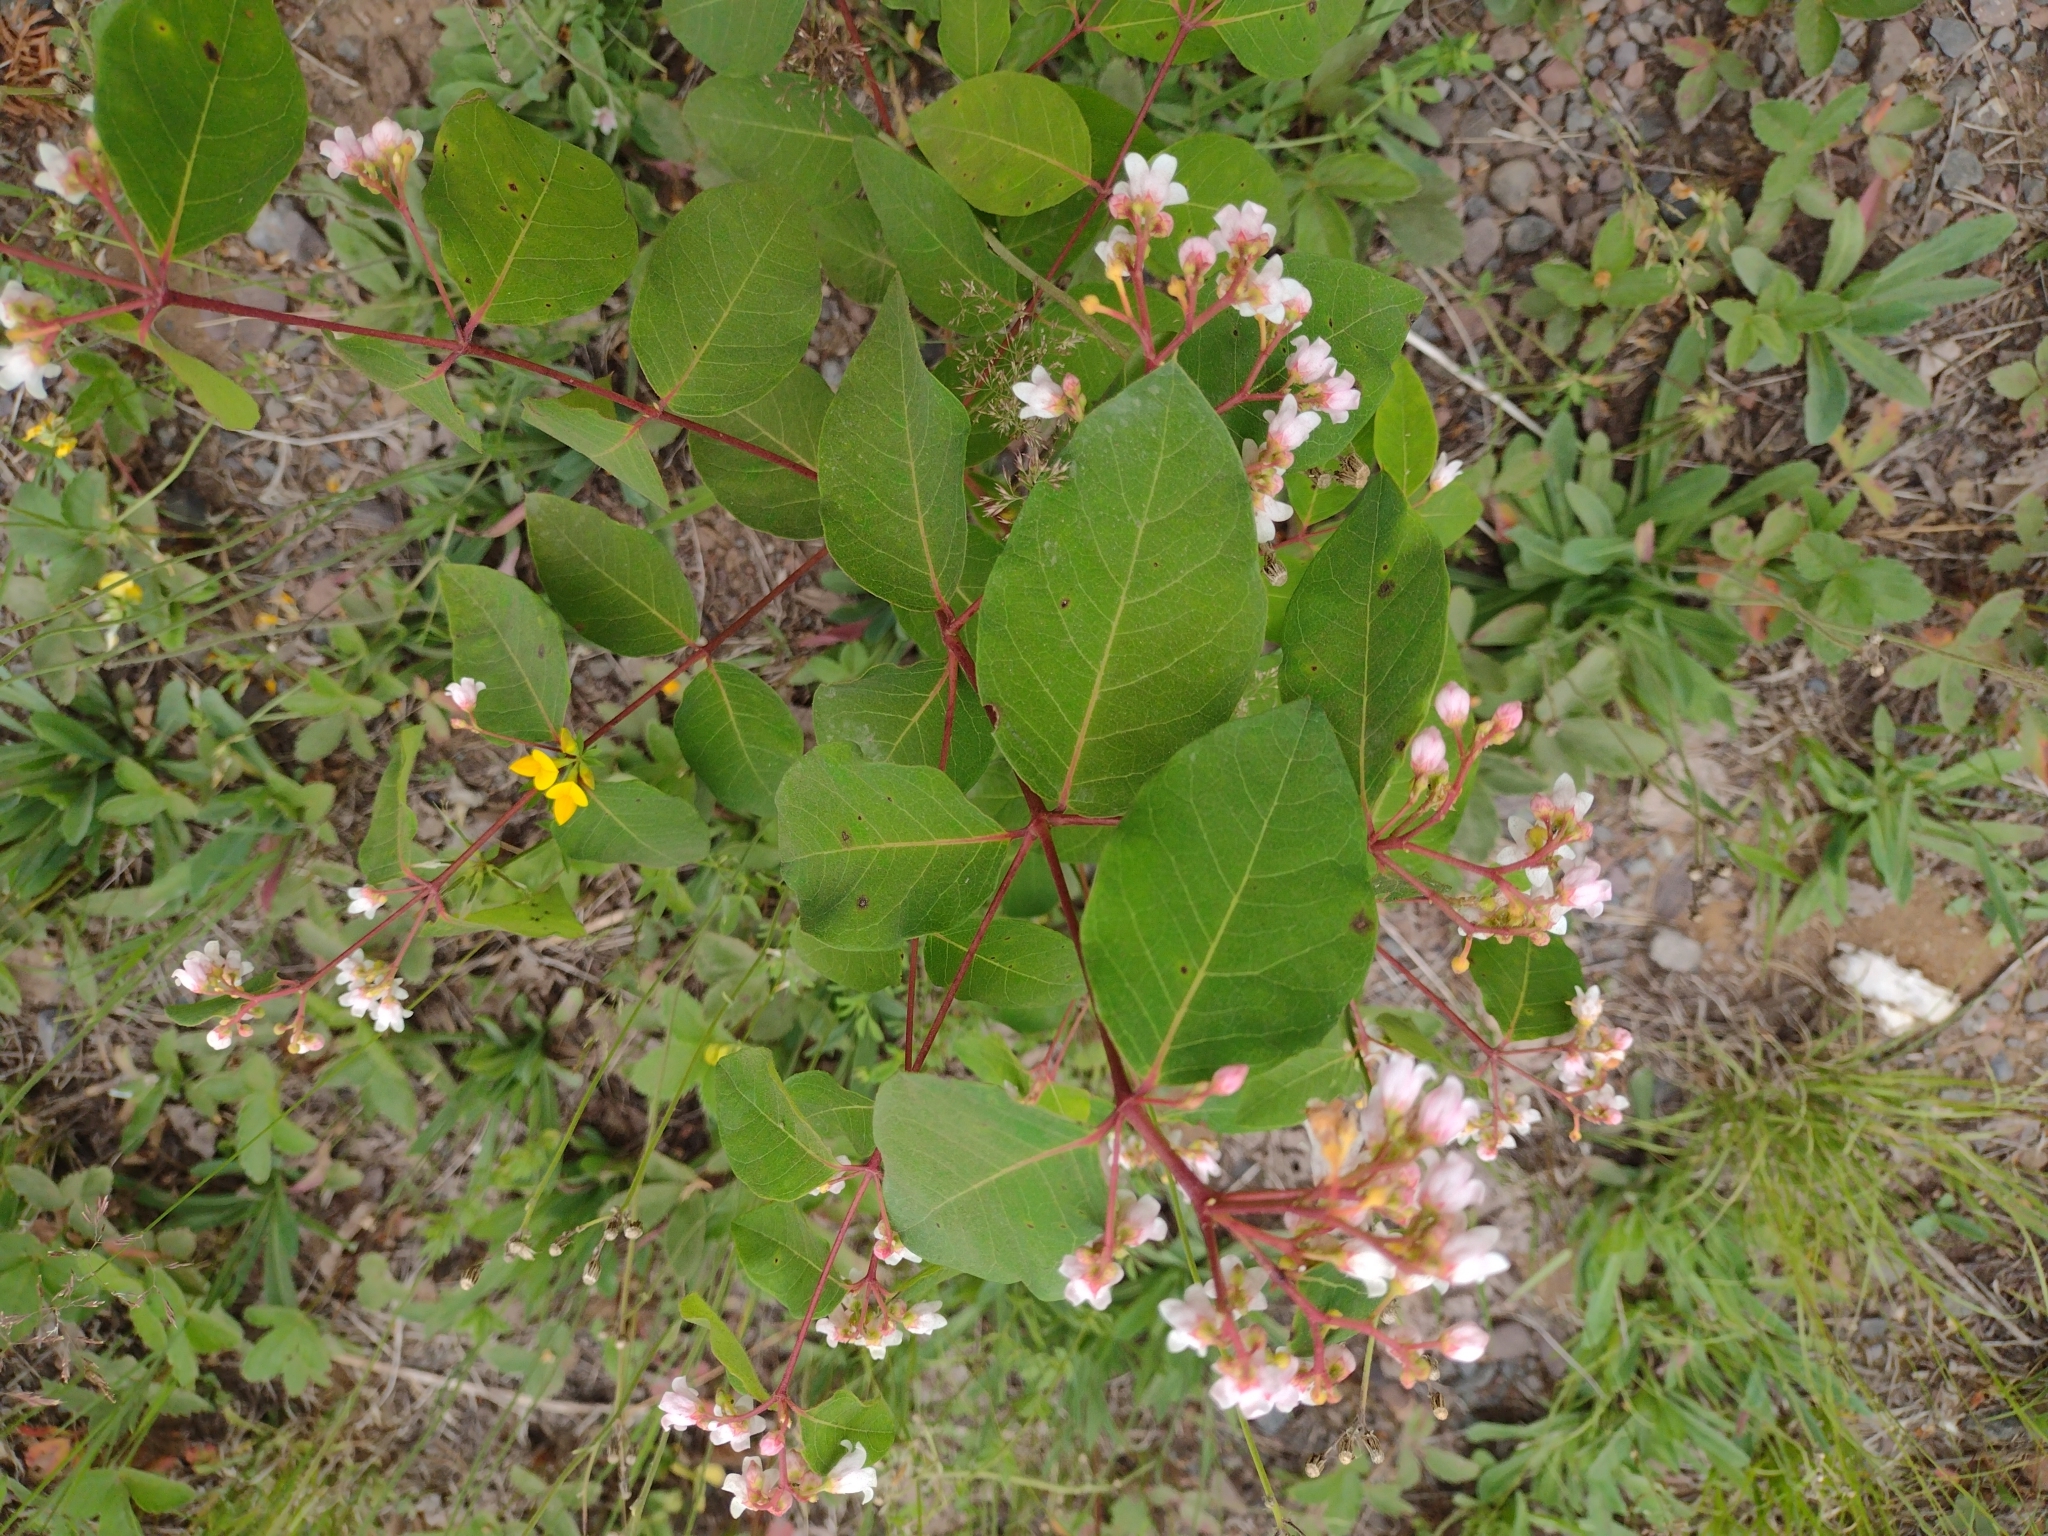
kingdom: Plantae
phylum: Tracheophyta
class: Magnoliopsida
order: Gentianales
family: Apocynaceae
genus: Apocynum
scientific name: Apocynum androsaemifolium
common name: Spreading dogbane
